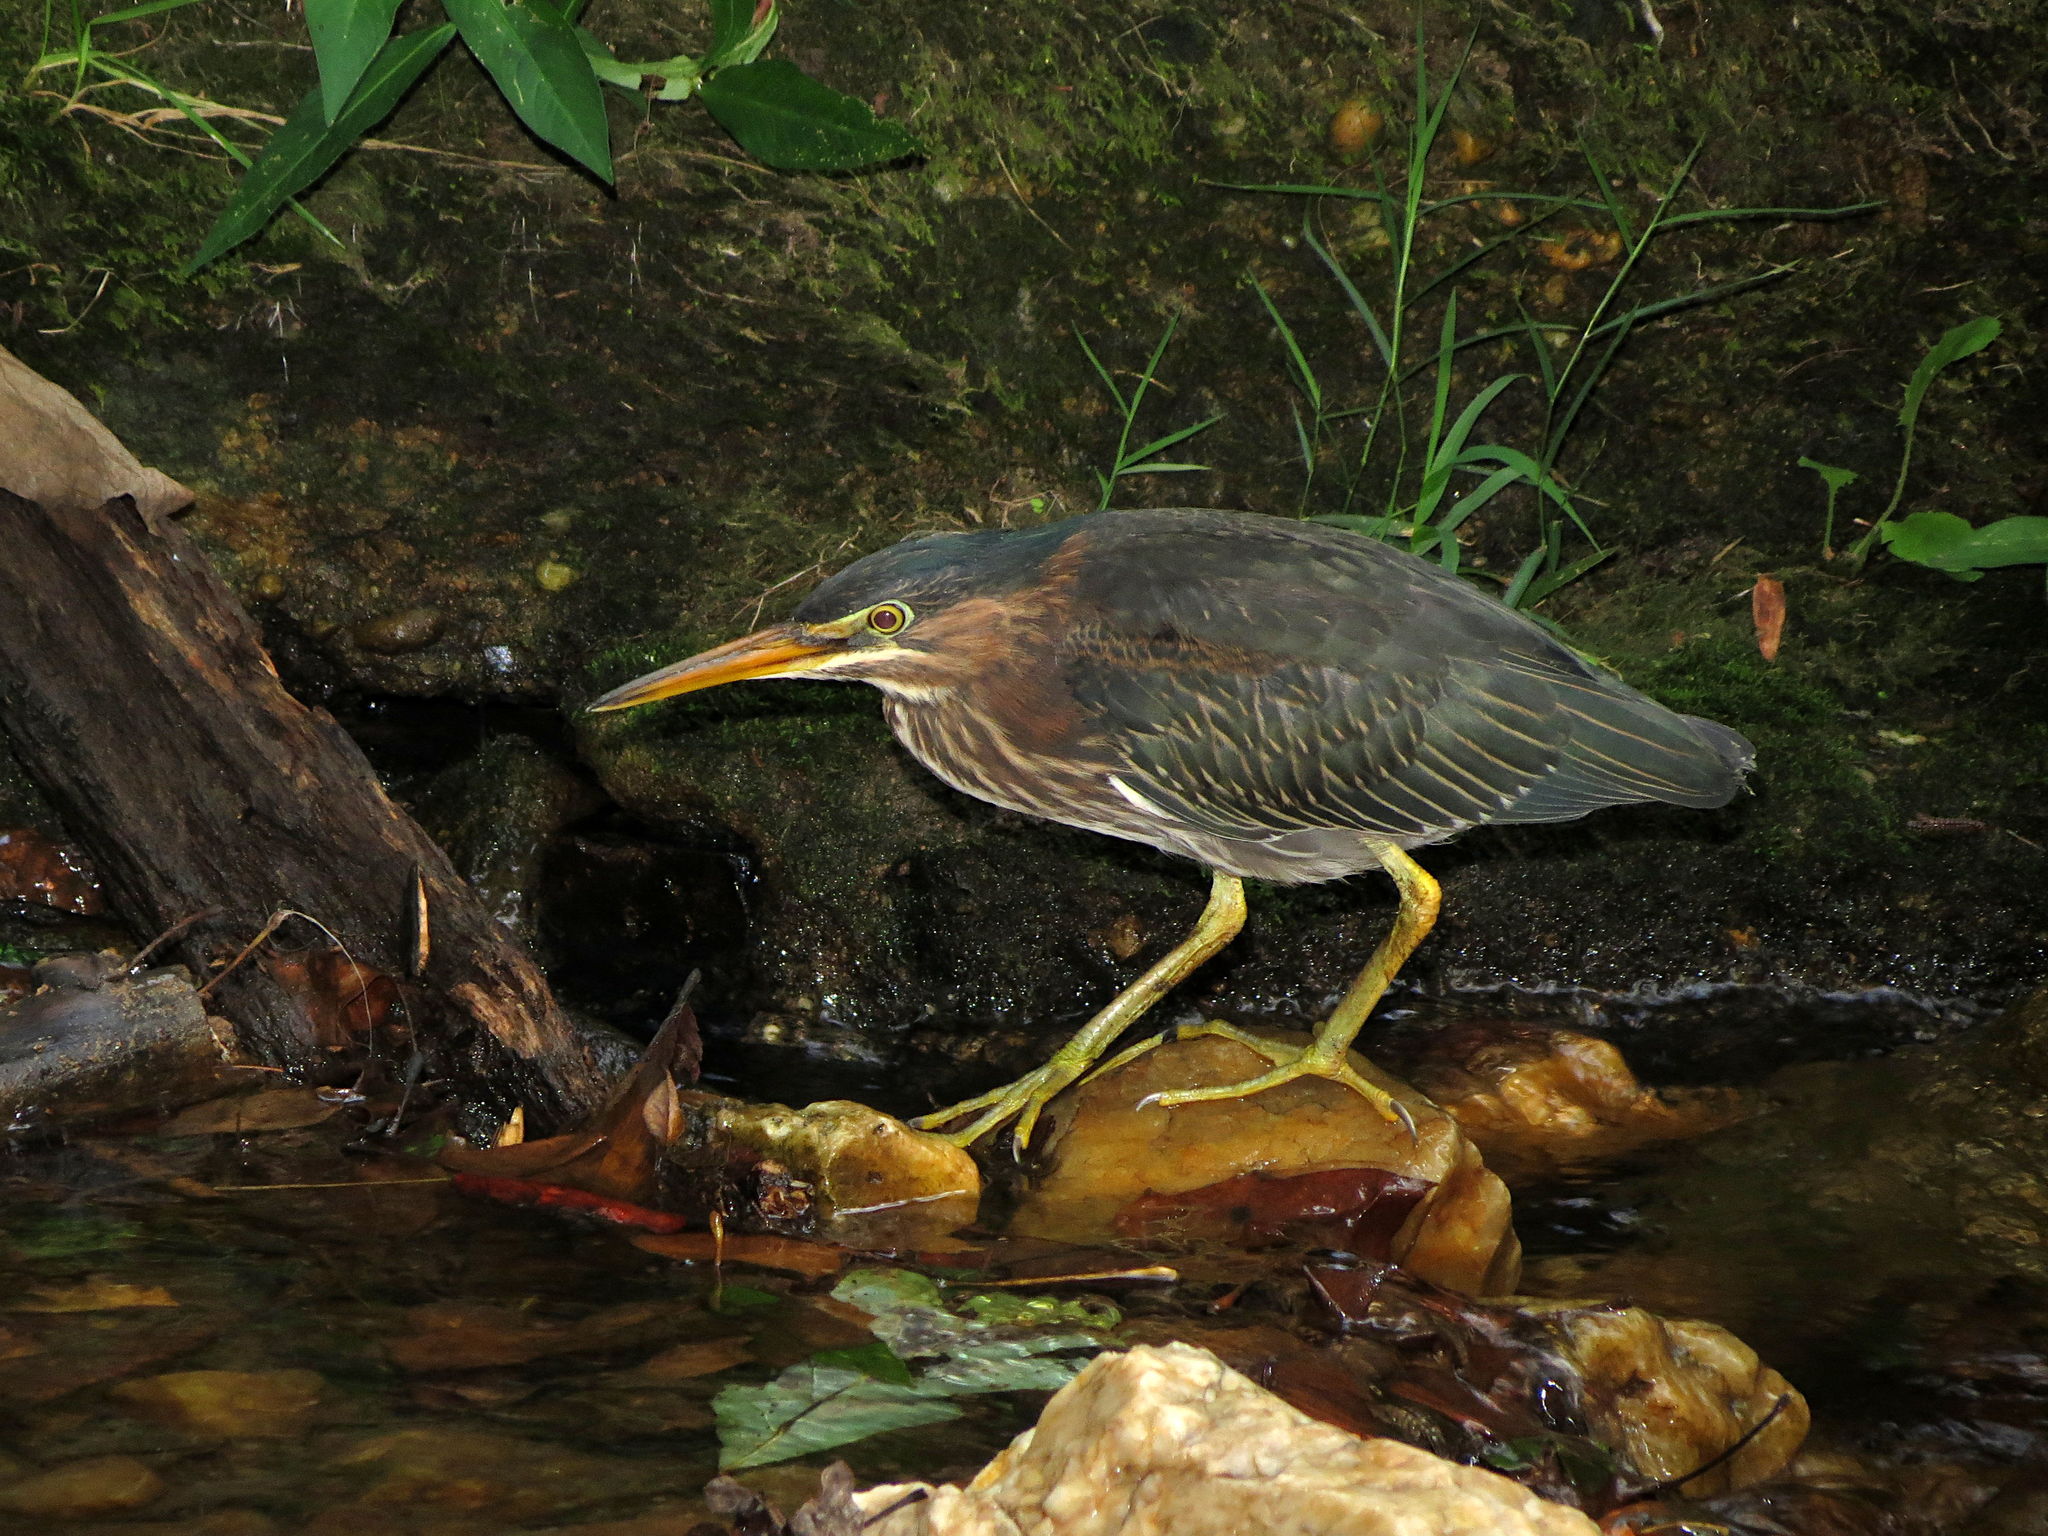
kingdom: Animalia
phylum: Chordata
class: Aves
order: Pelecaniformes
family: Ardeidae
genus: Butorides
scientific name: Butorides virescens
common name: Green heron
